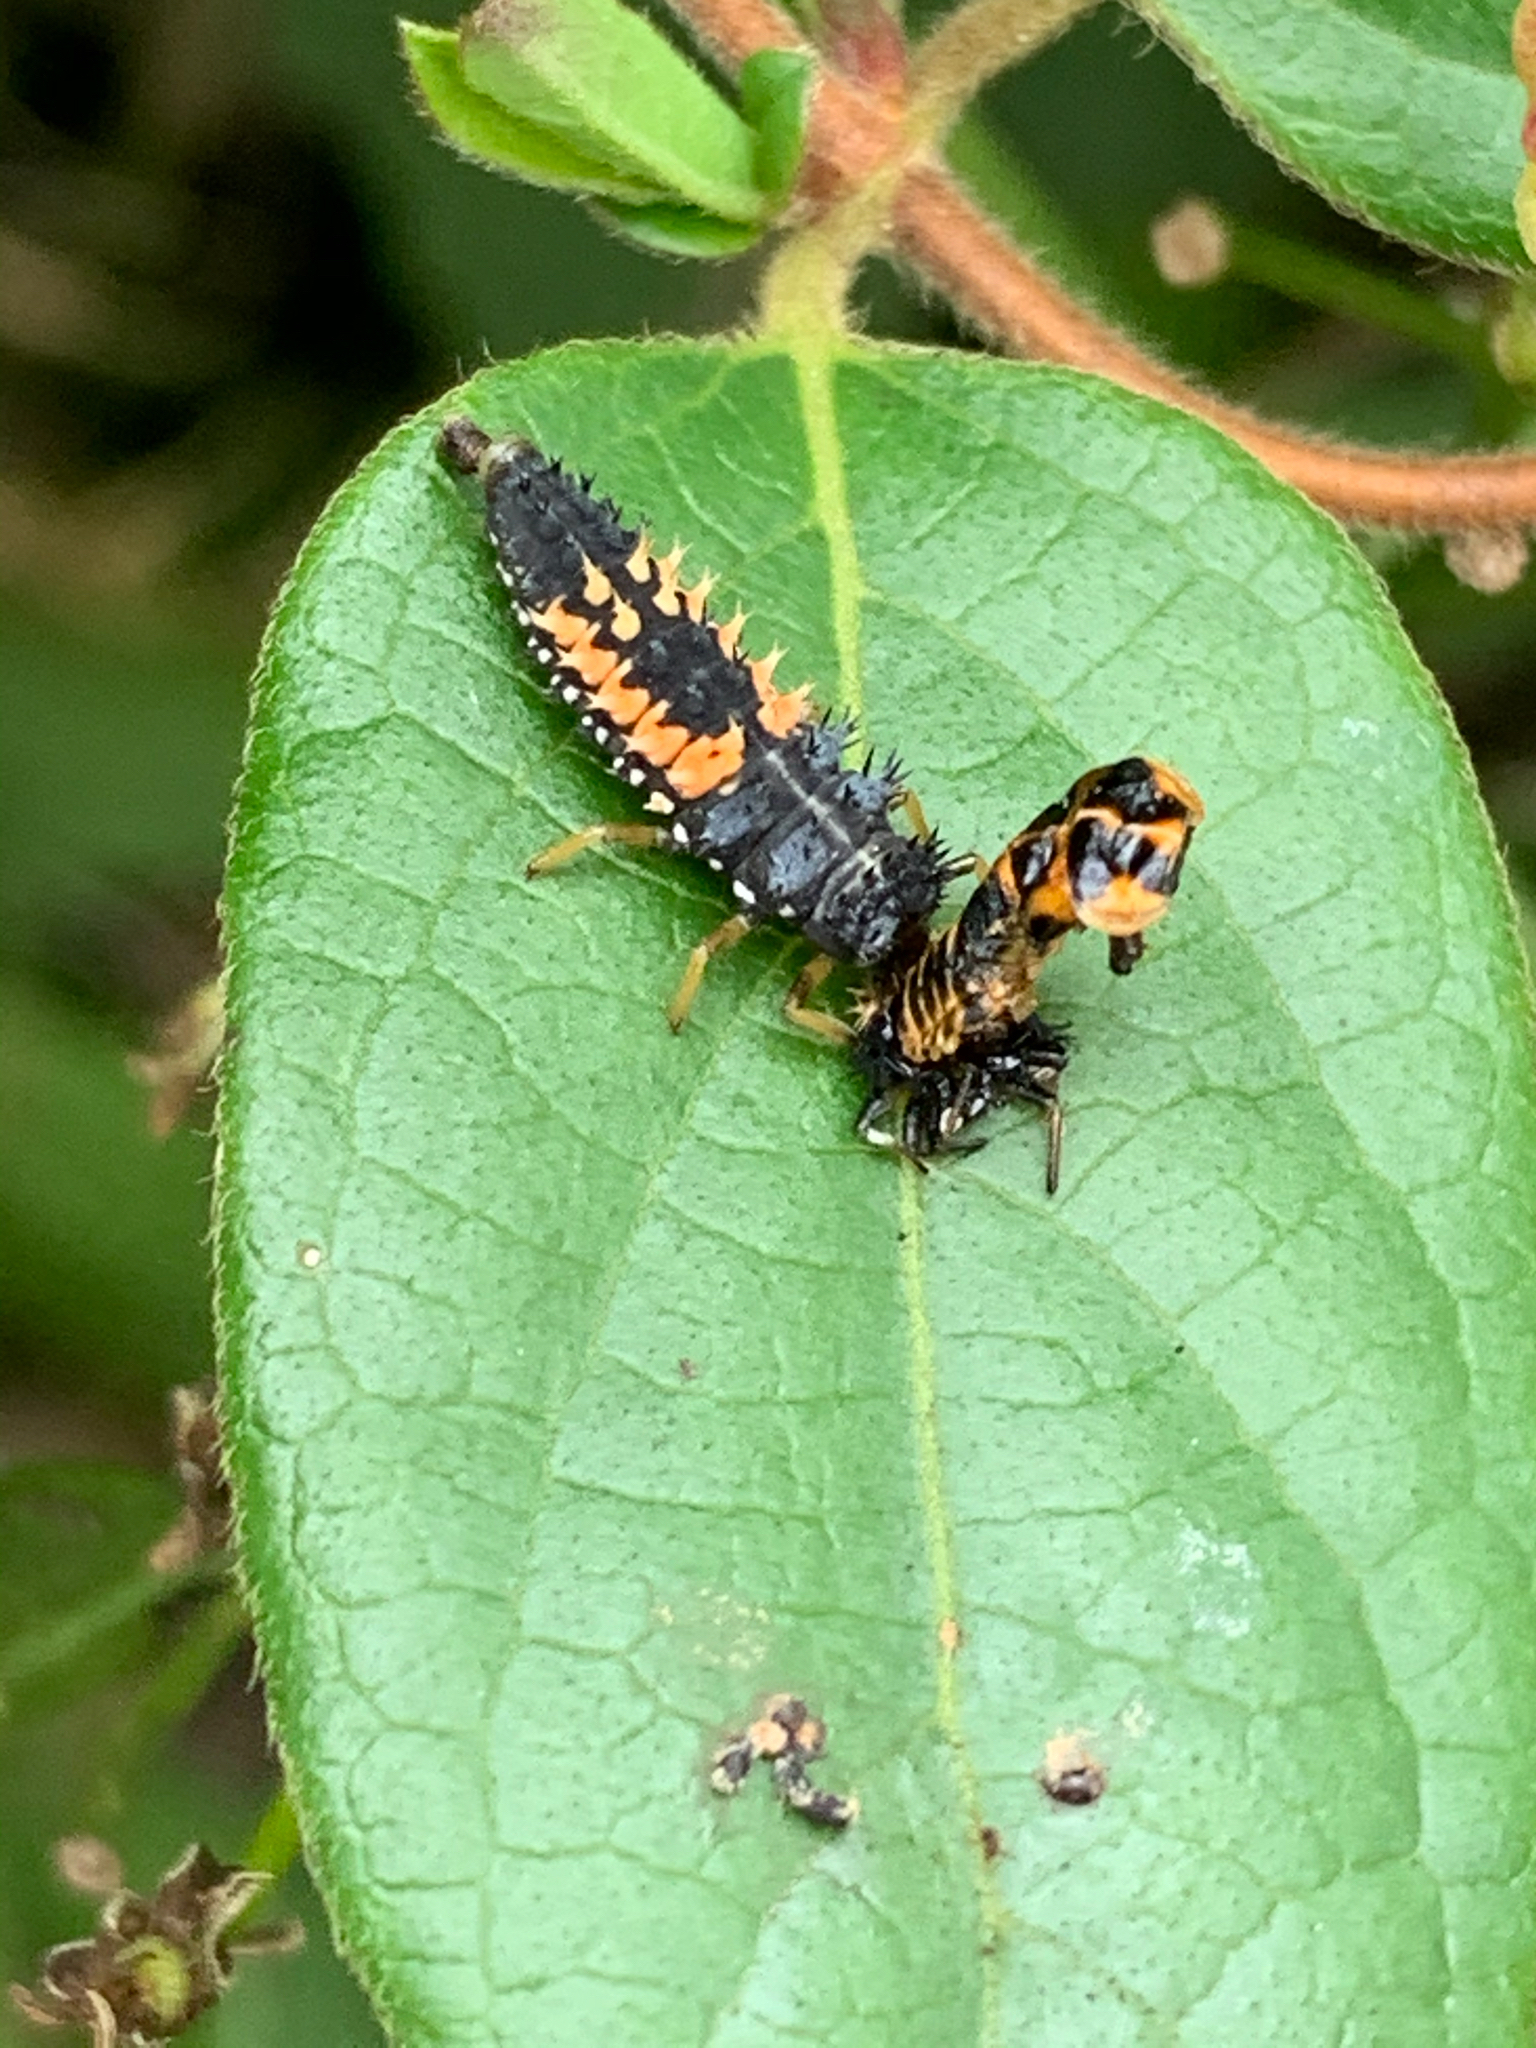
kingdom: Animalia
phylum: Arthropoda
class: Insecta
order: Coleoptera
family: Coccinellidae
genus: Harmonia
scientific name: Harmonia axyridis
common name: Harlequin ladybird
